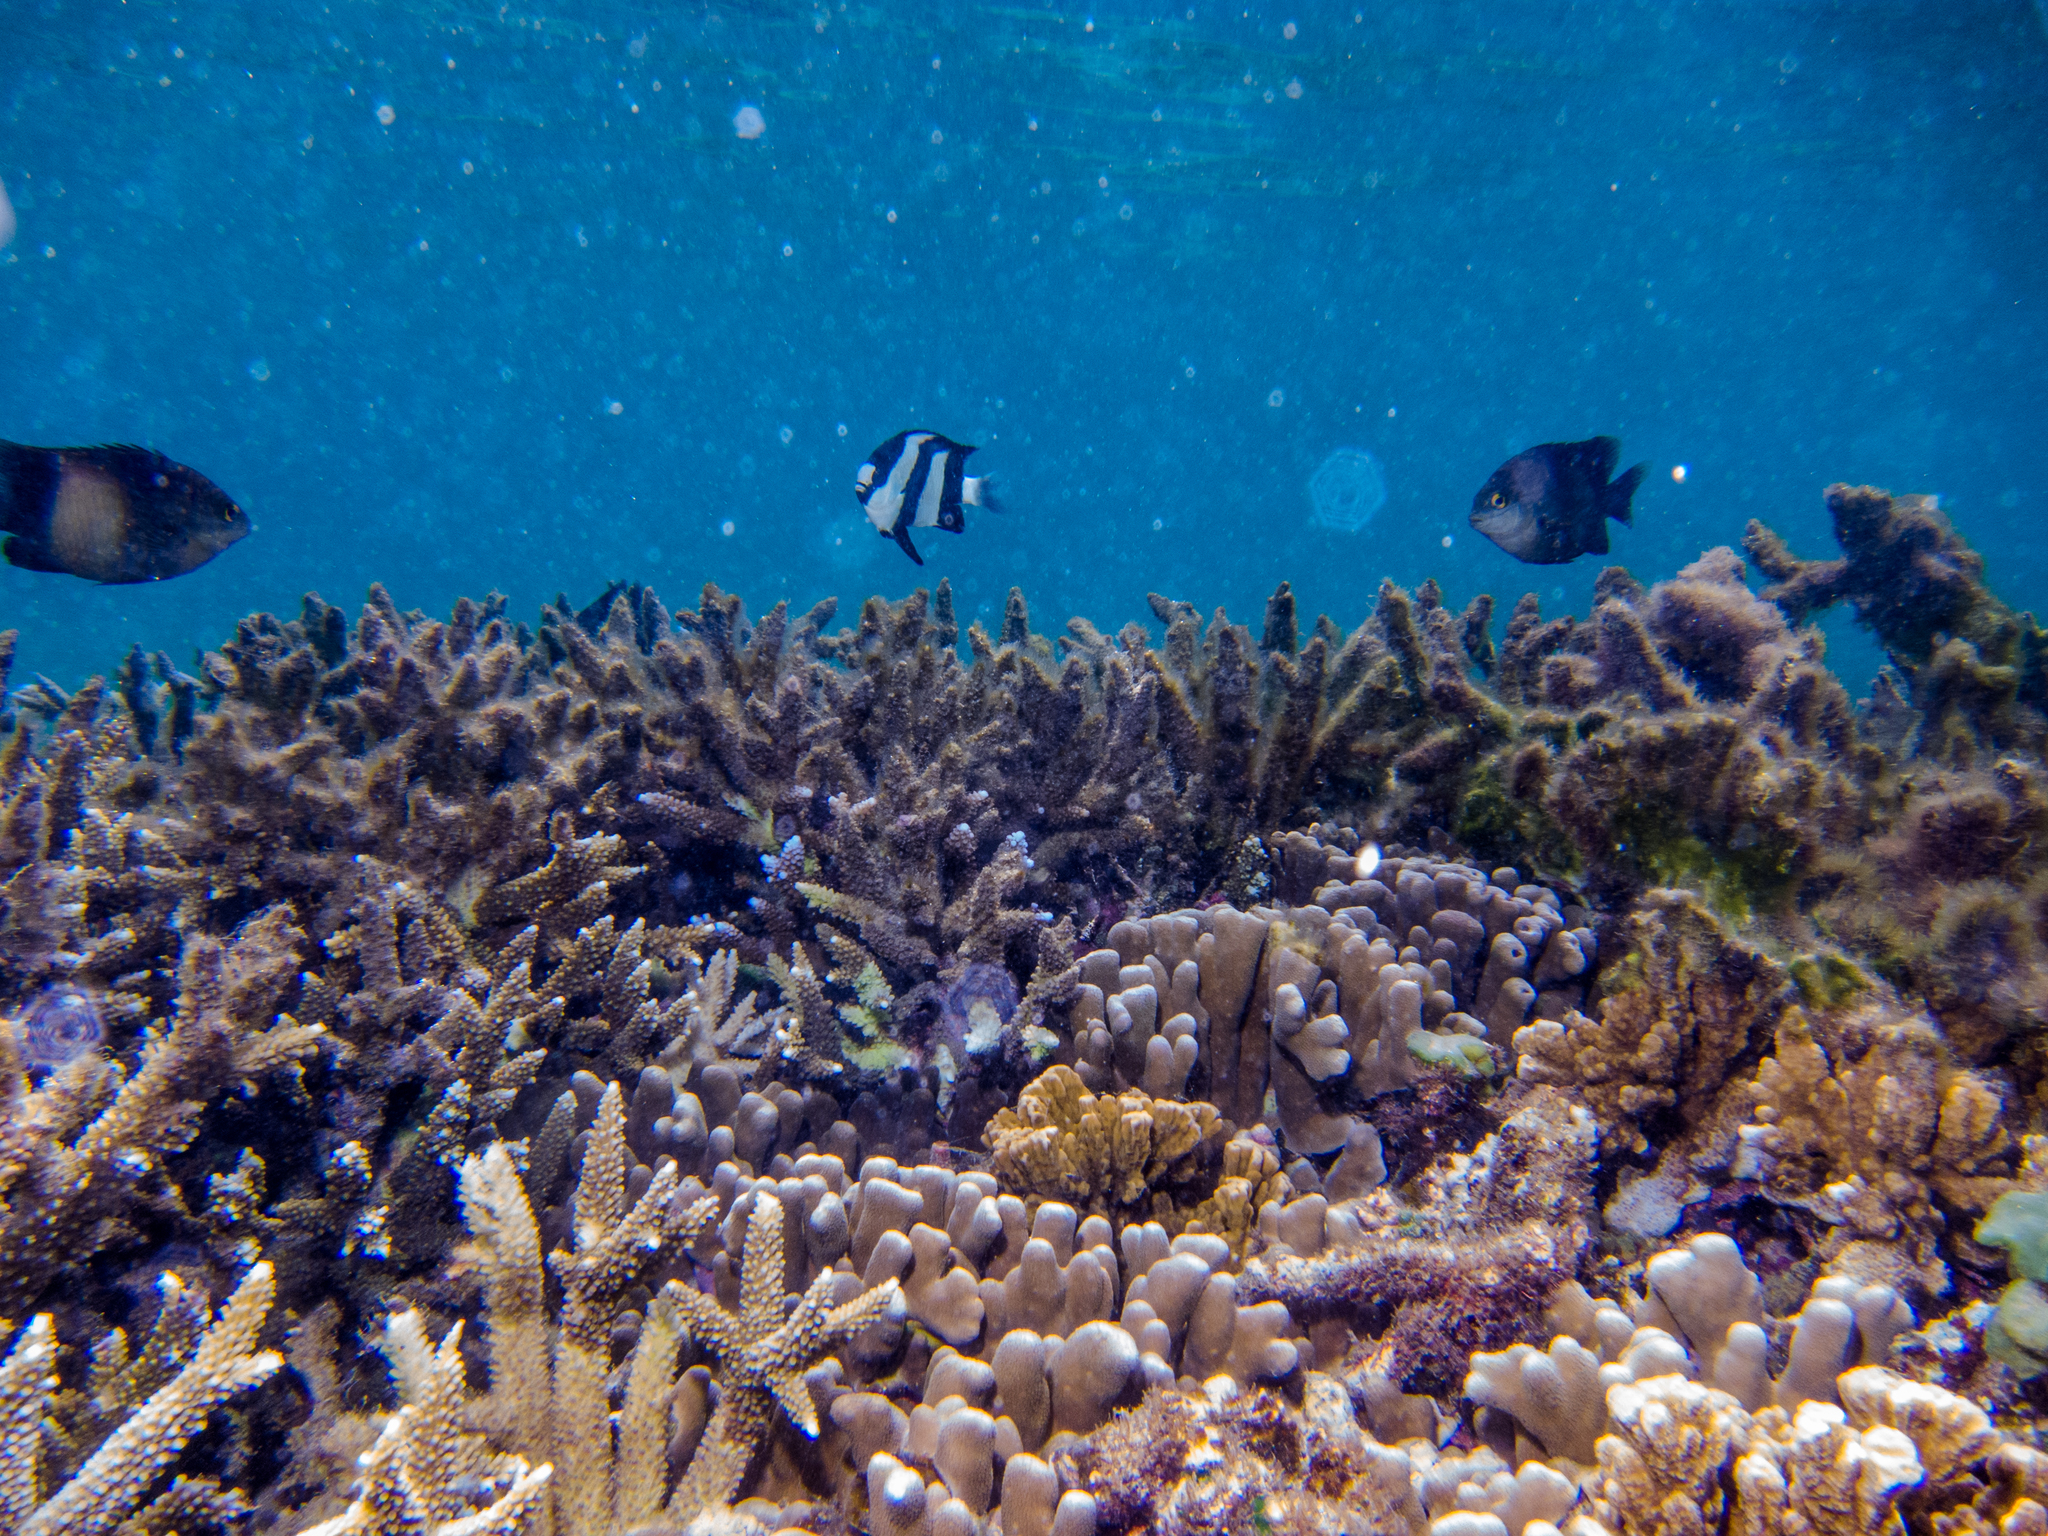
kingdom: Animalia
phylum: Chordata
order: Perciformes
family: Pomacentridae
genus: Dascyllus
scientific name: Dascyllus abudafur
